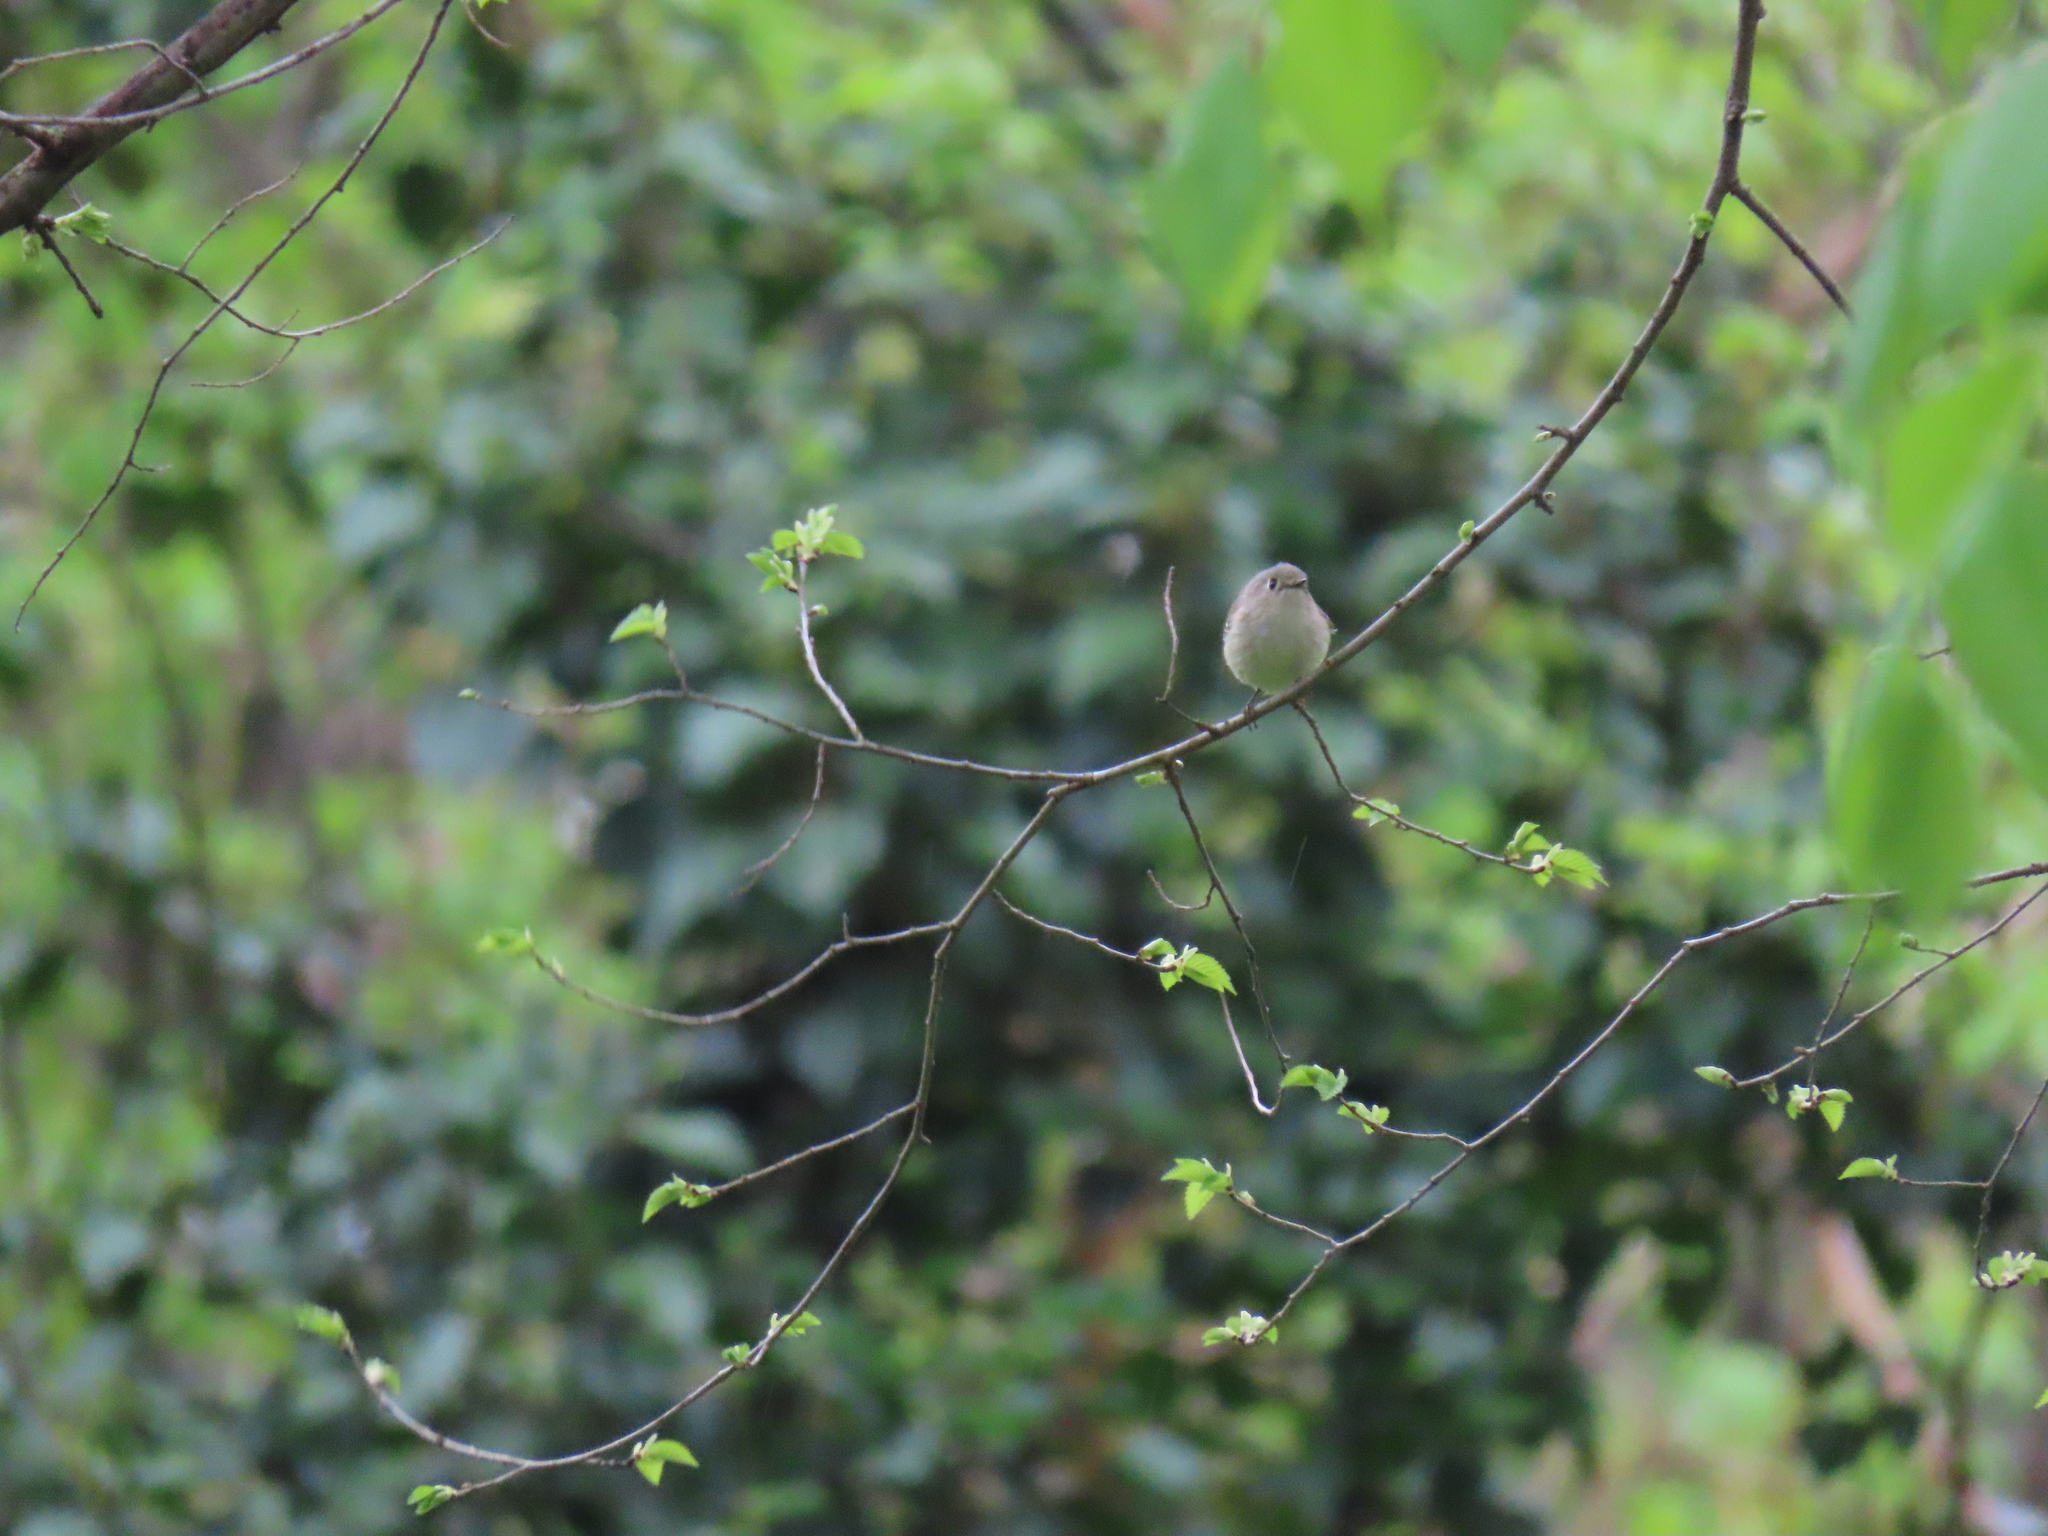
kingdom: Animalia
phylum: Chordata
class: Aves
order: Passeriformes
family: Regulidae
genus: Regulus
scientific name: Regulus calendula
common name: Ruby-crowned kinglet
